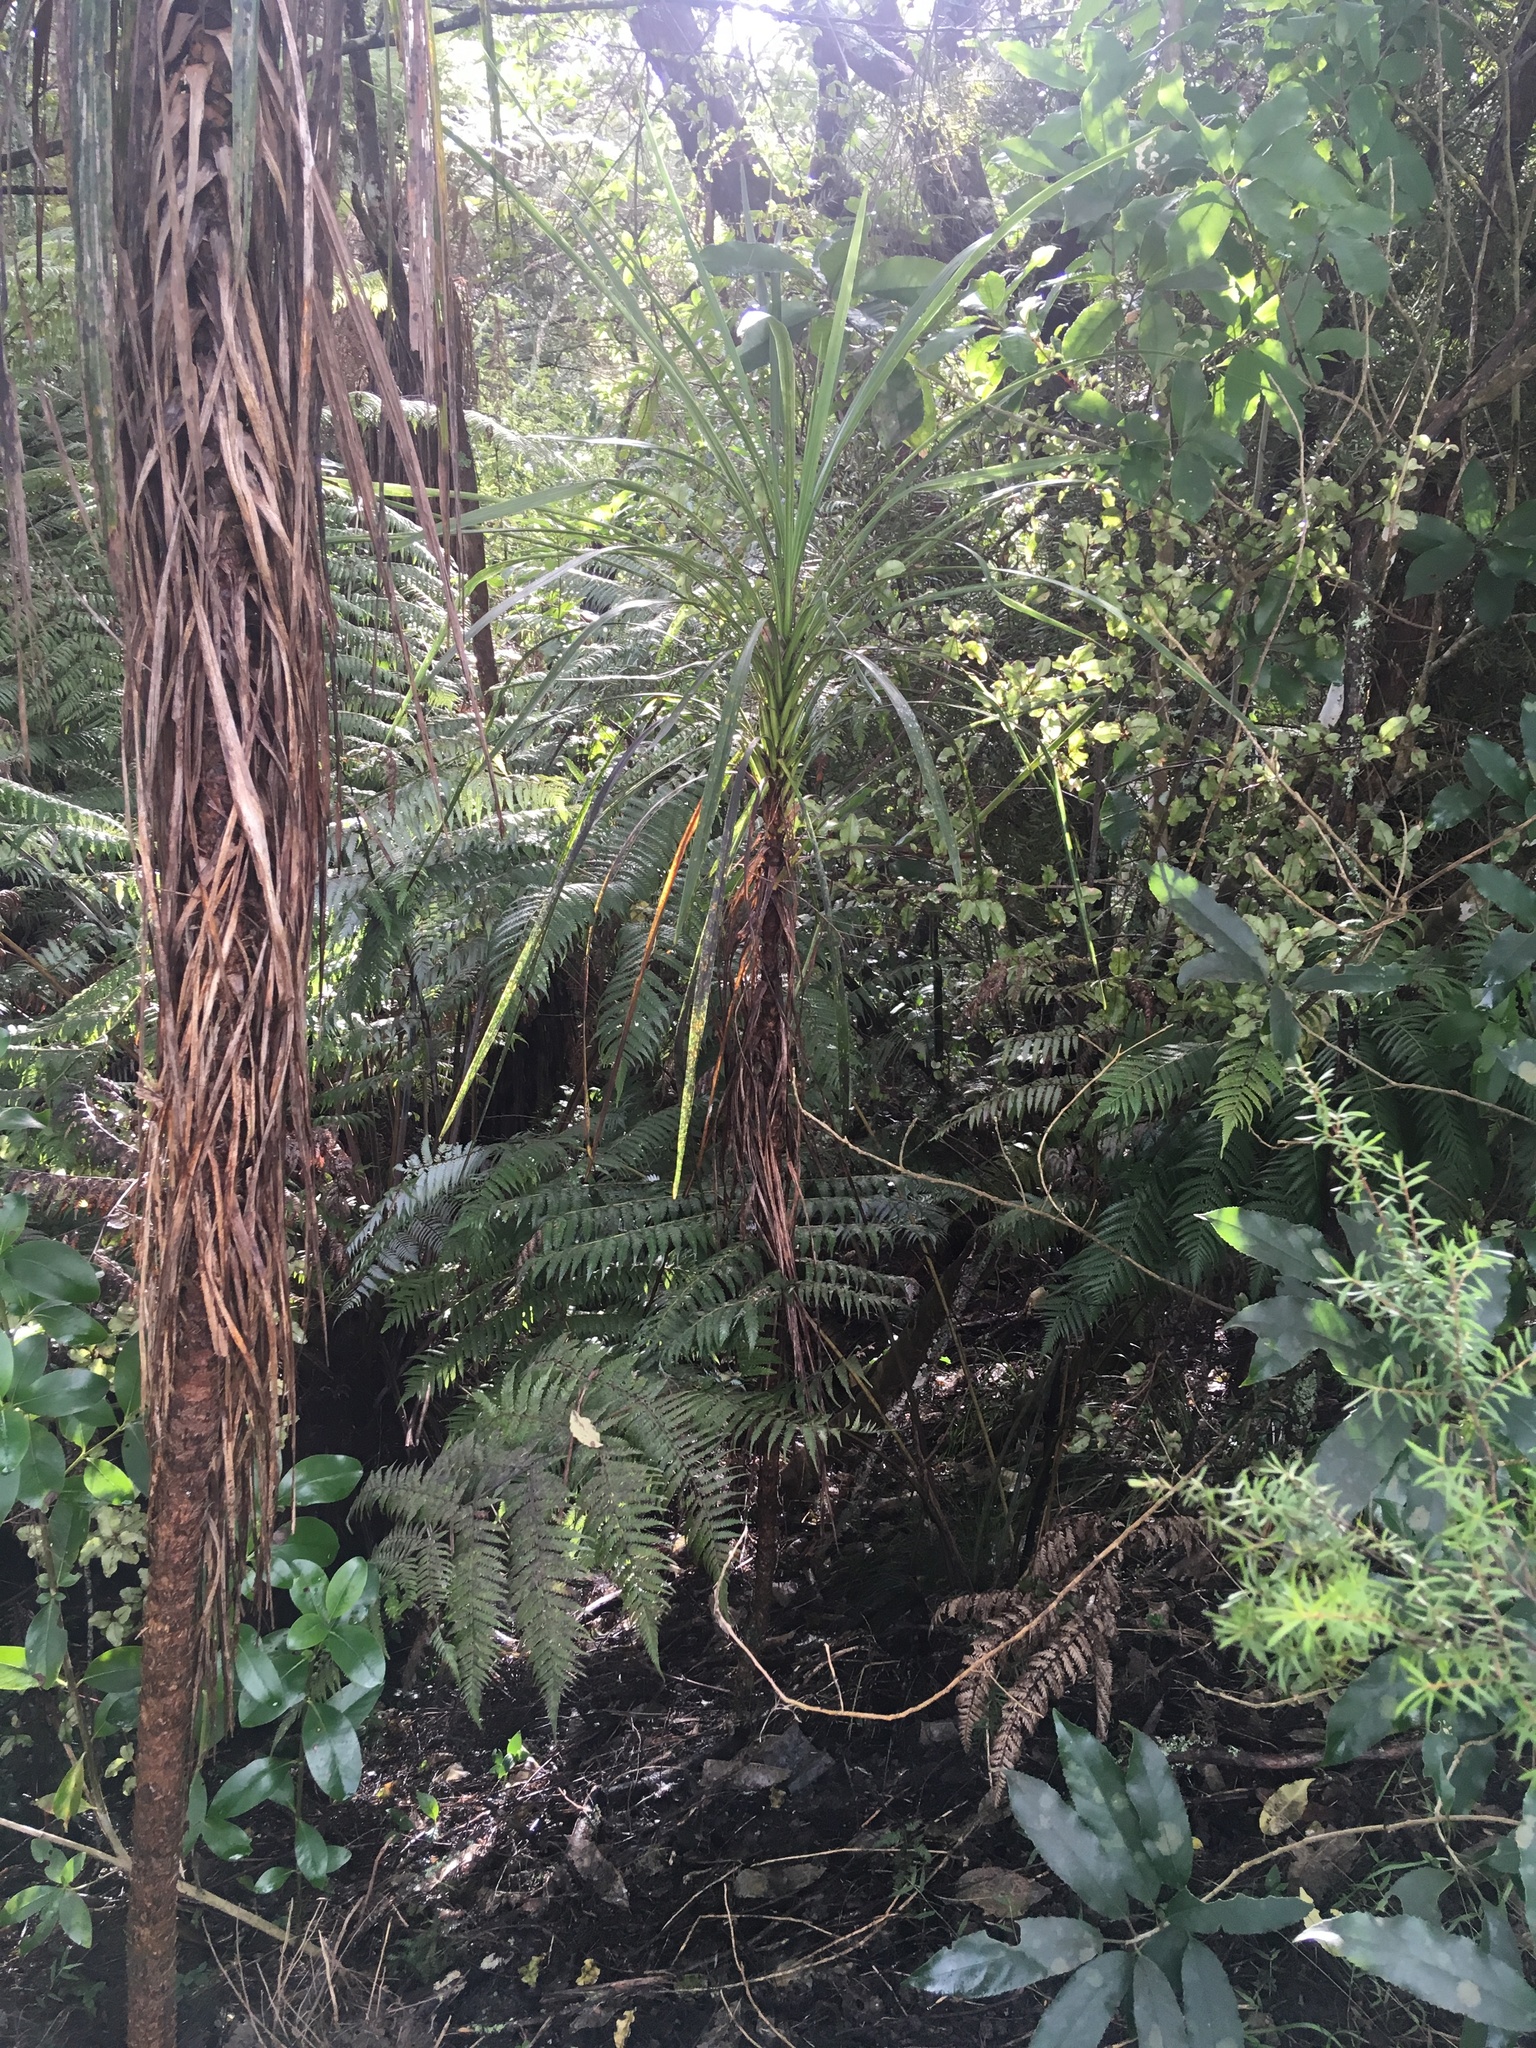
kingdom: Plantae
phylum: Tracheophyta
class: Liliopsida
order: Asparagales
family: Asparagaceae
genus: Cordyline
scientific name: Cordyline australis
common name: Cabbage-palm
